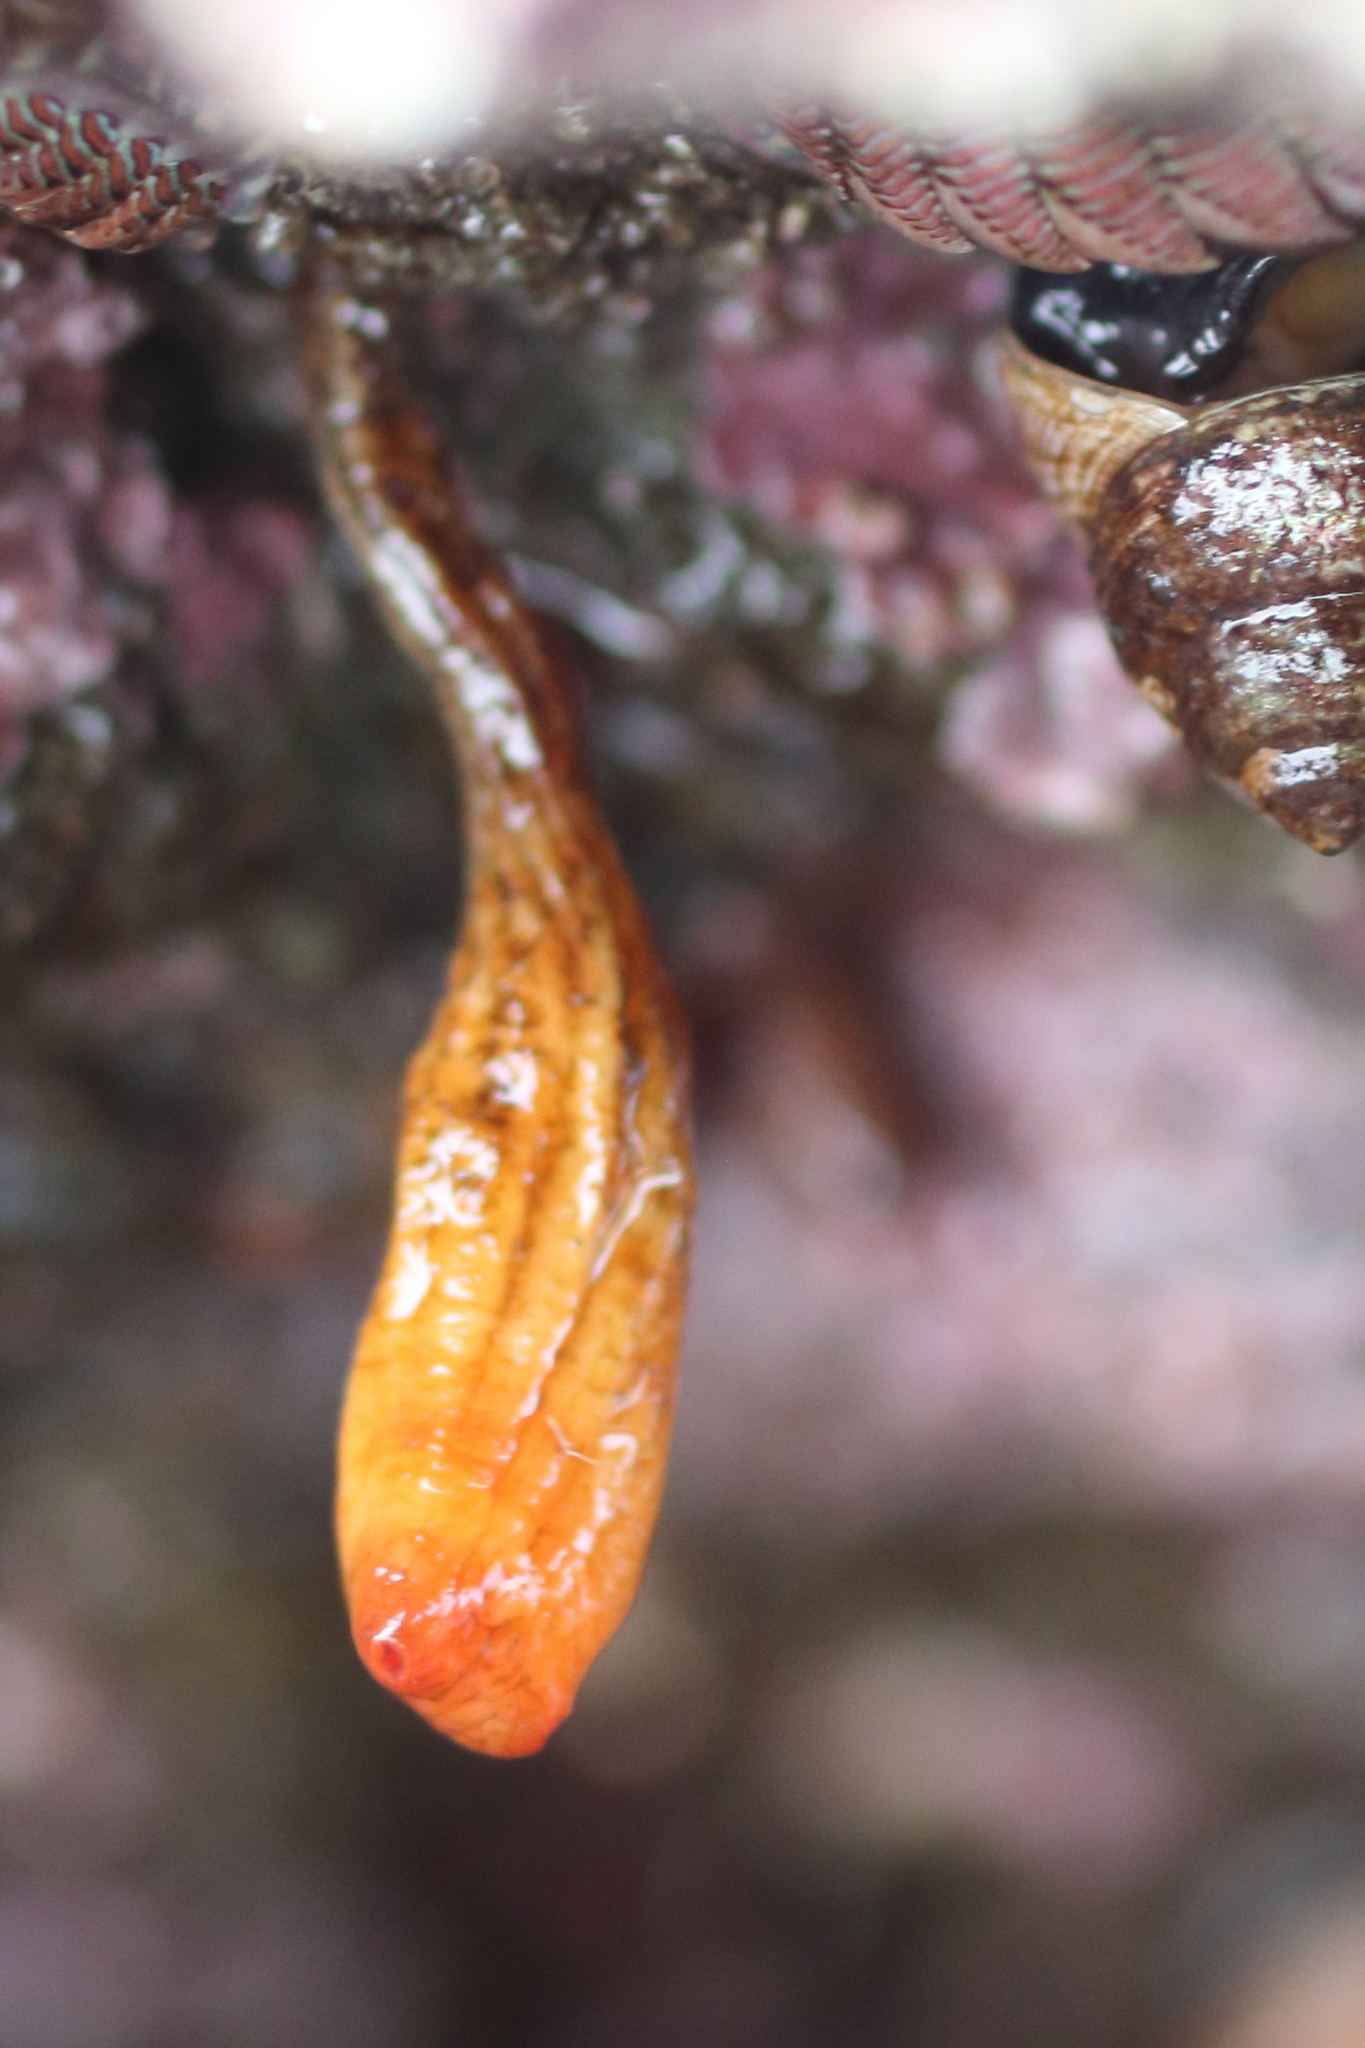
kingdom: Animalia
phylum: Chordata
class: Ascidiacea
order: Stolidobranchia
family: Styelidae
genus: Styela
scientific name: Styela montereyensis
